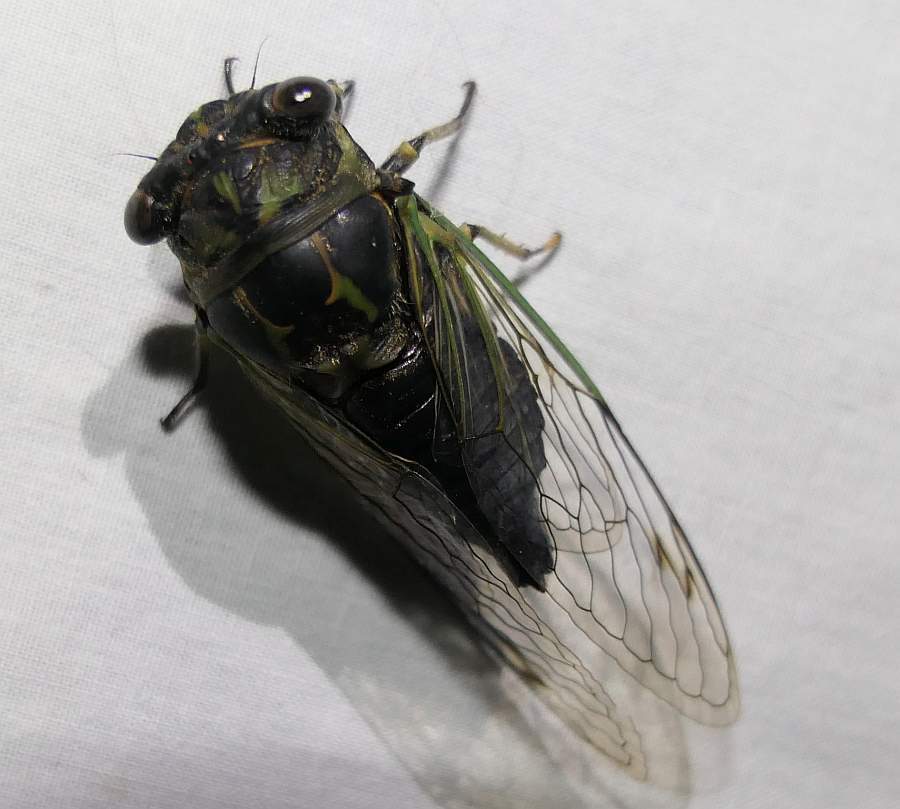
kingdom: Animalia
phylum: Arthropoda
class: Insecta
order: Hemiptera
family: Cicadidae
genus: Neotibicen
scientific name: Neotibicen canicularis
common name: God-day cicada
